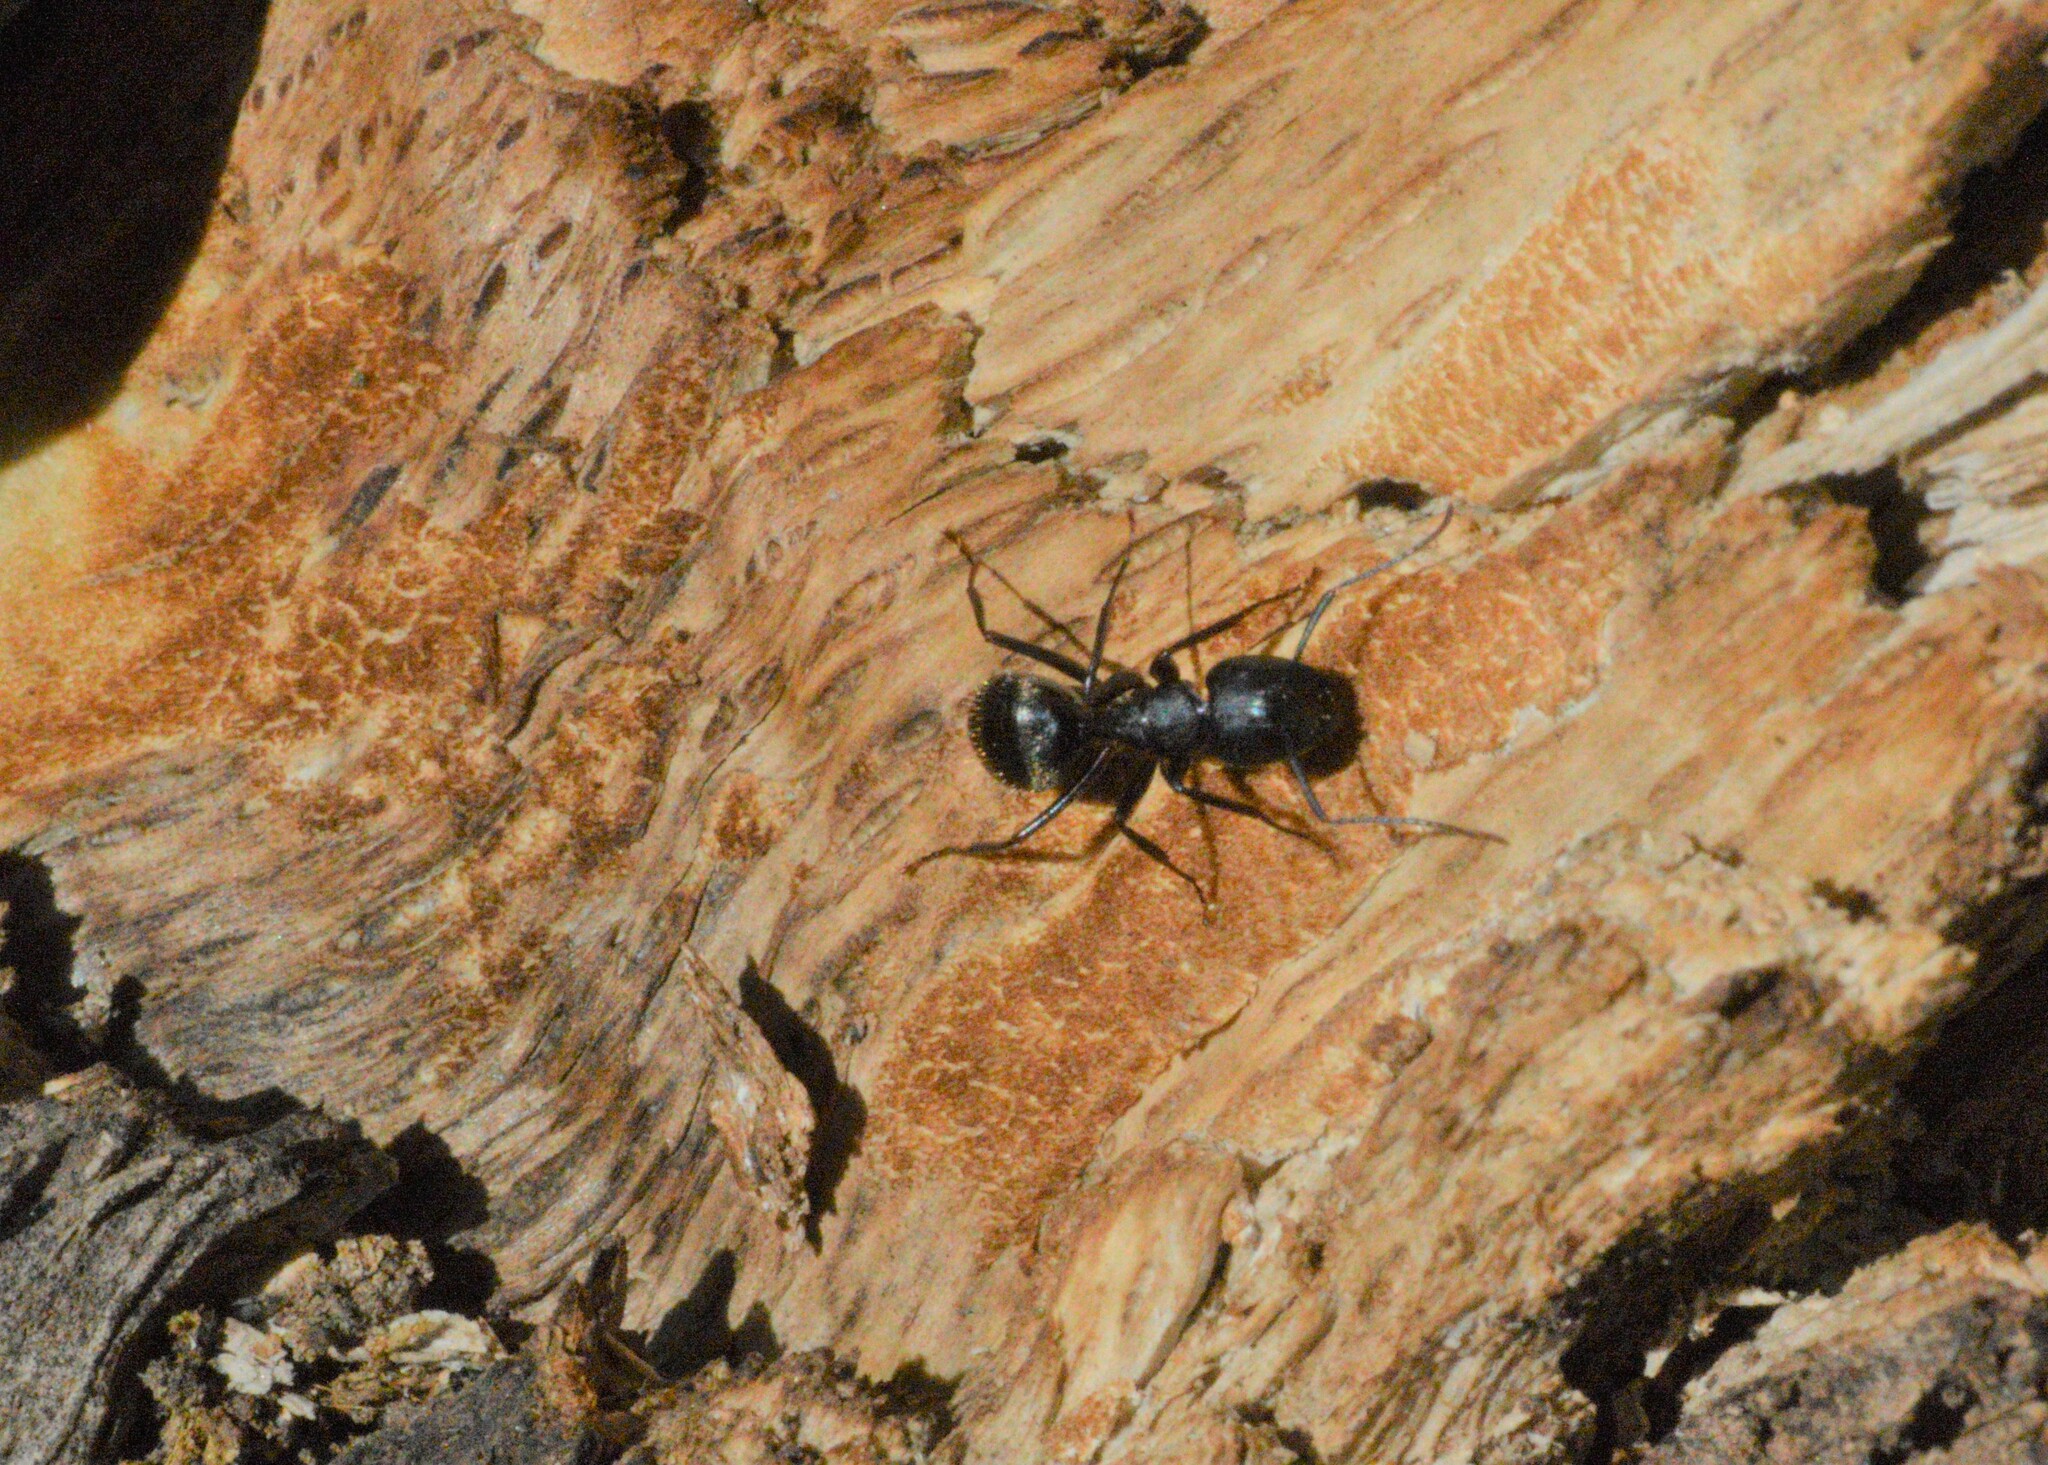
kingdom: Animalia
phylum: Arthropoda
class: Insecta
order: Hymenoptera
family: Formicidae
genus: Camponotus
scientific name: Camponotus pennsylvanicus
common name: Black carpenter ant
